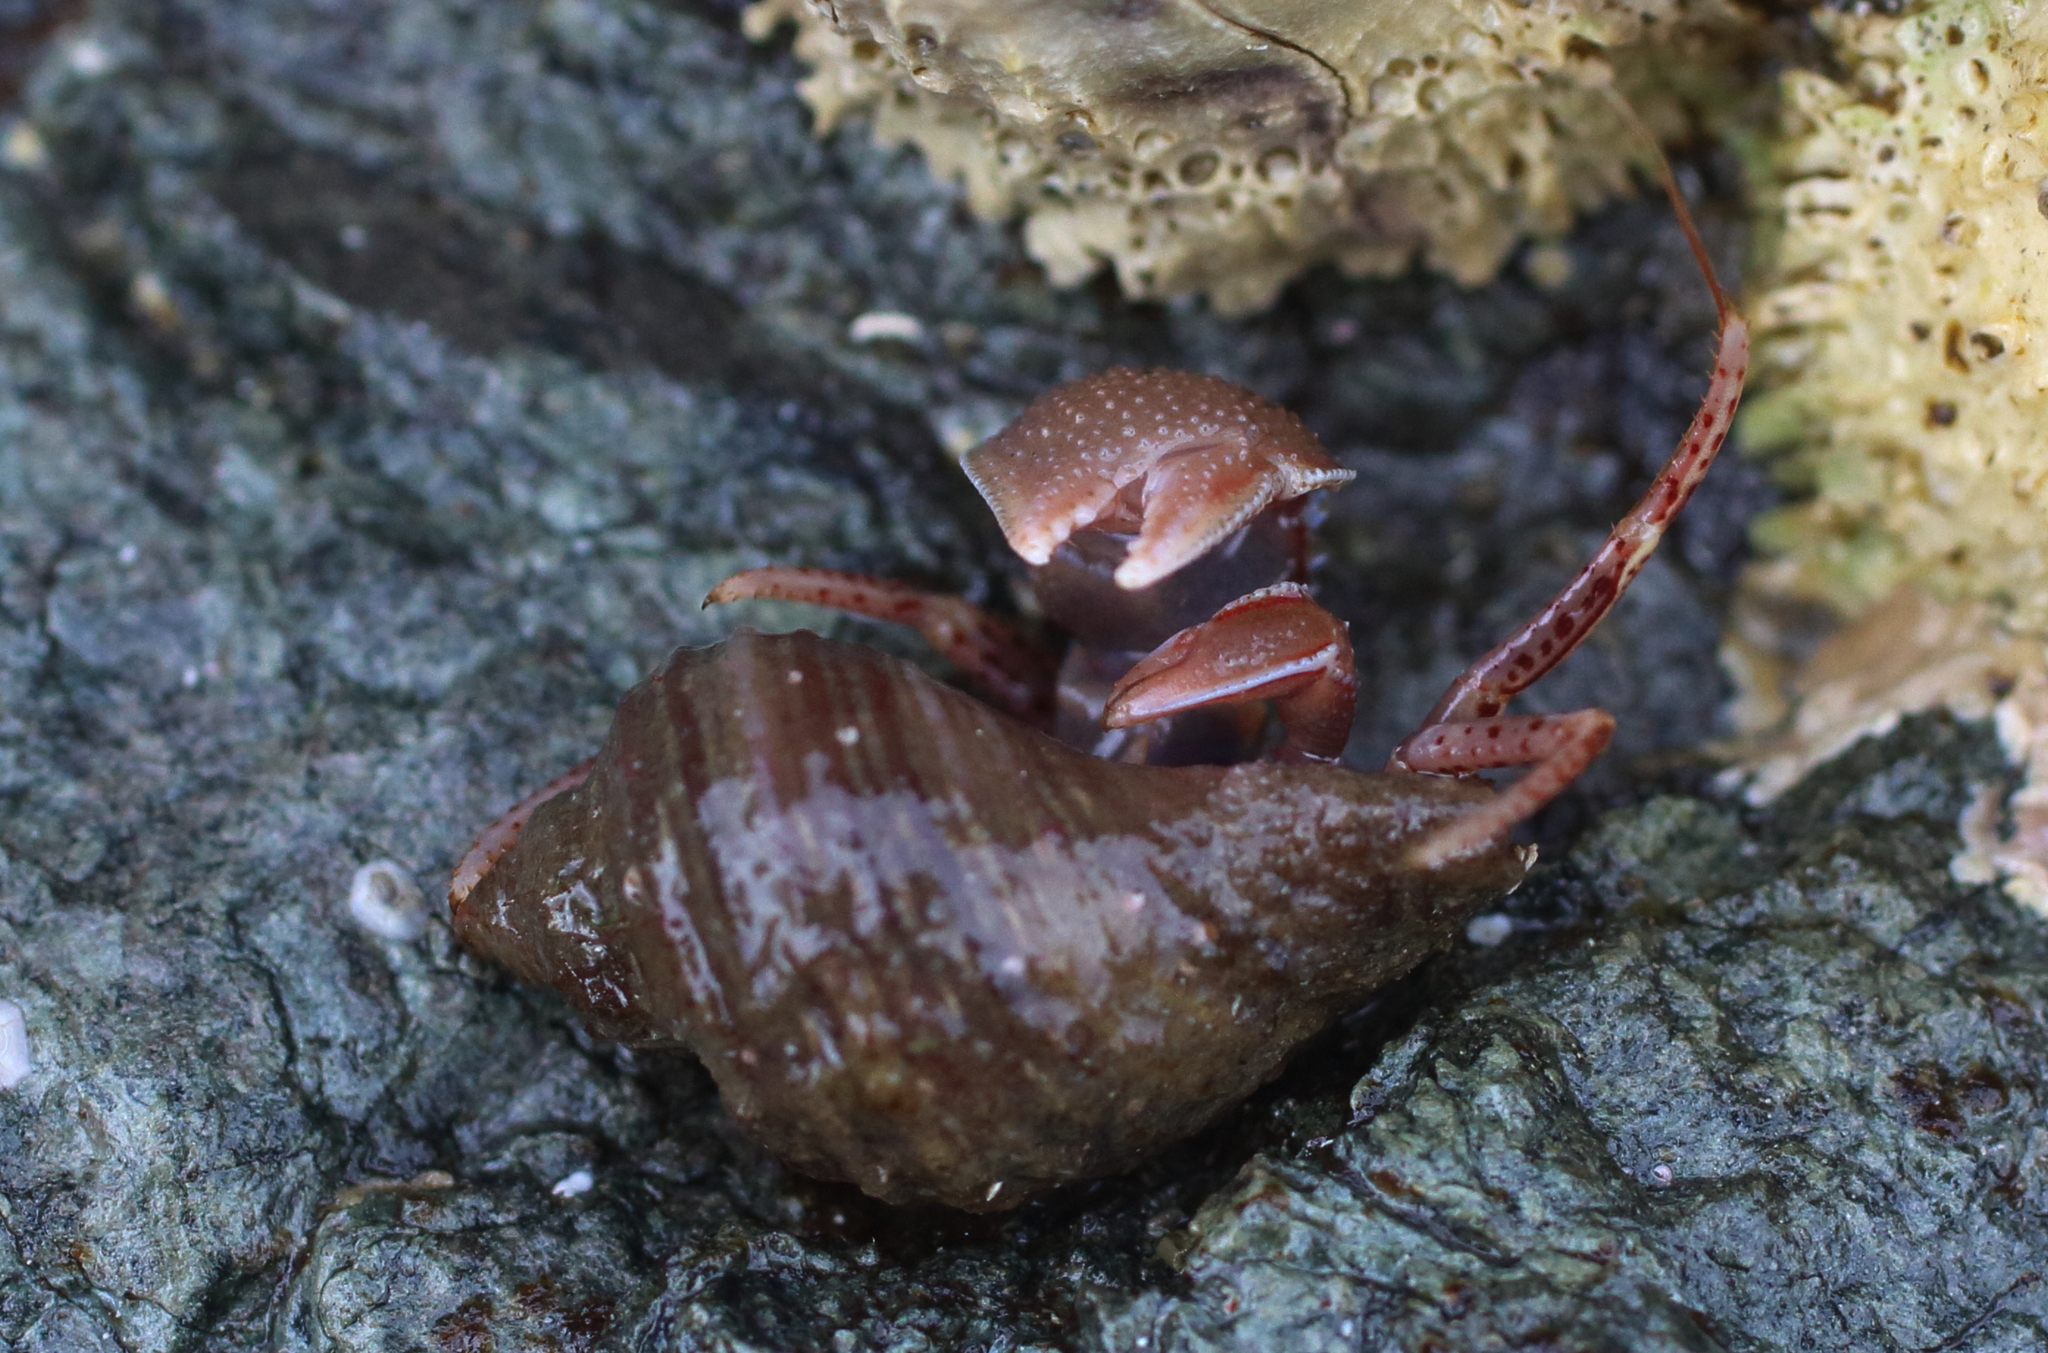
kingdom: Animalia
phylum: Arthropoda
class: Malacostraca
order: Decapoda
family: Paguridae
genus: Elassochirus
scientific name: Elassochirus tenuimanus
